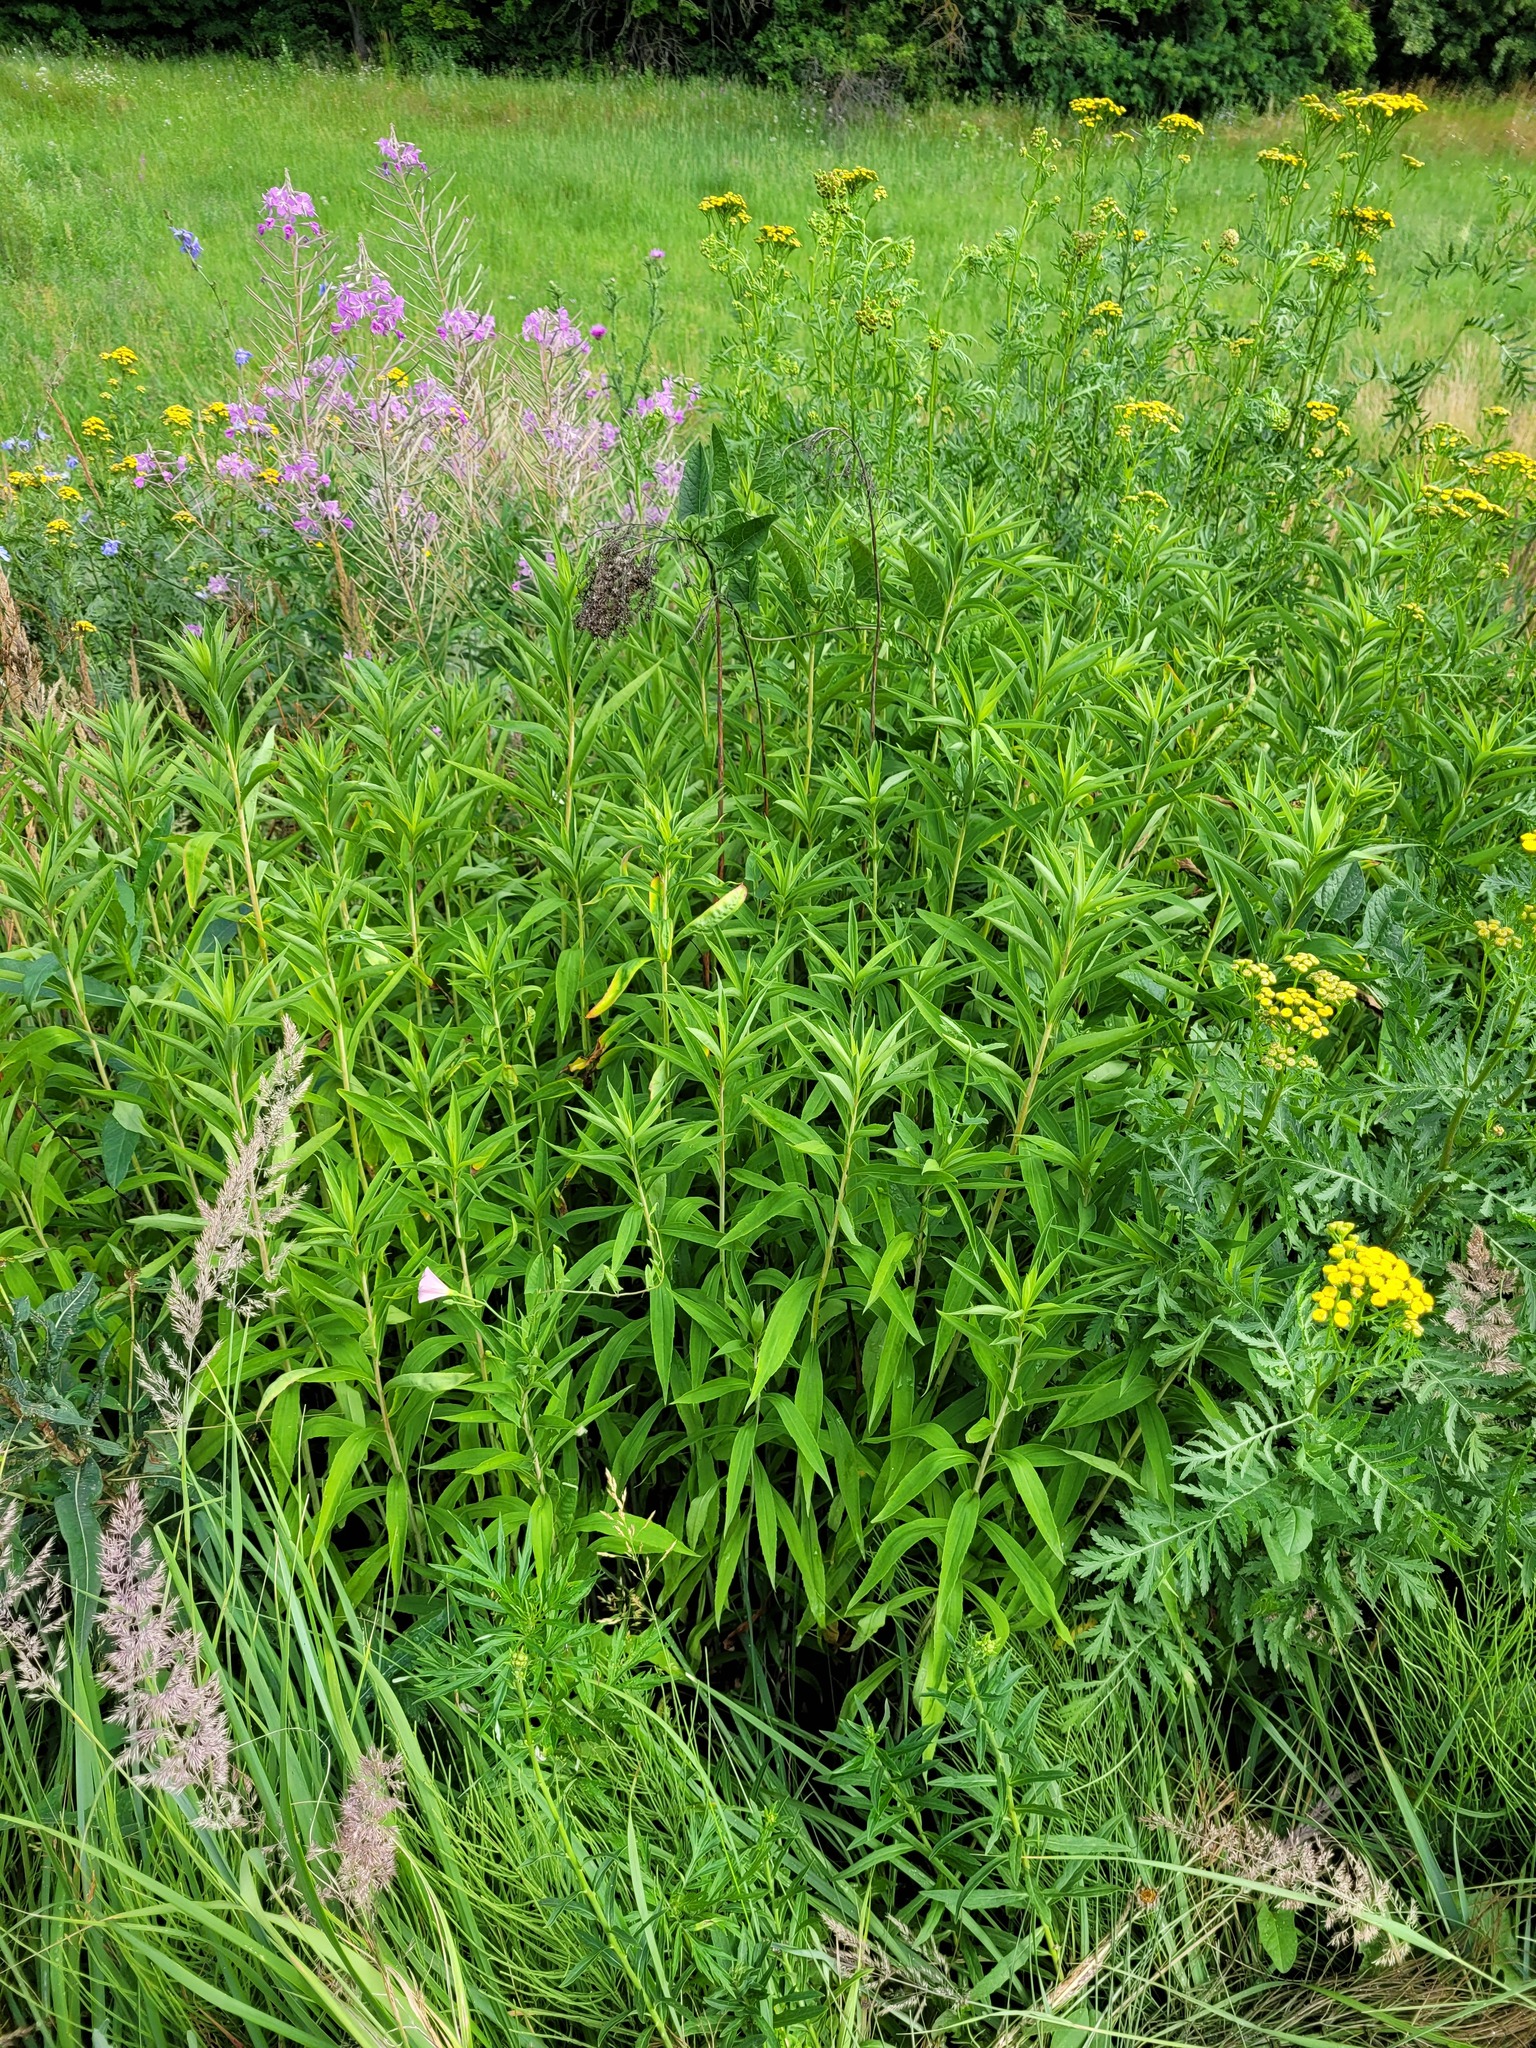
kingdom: Plantae
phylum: Tracheophyta
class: Magnoliopsida
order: Asterales
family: Asteraceae
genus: Solidago
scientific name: Solidago gigantea
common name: Giant goldenrod
